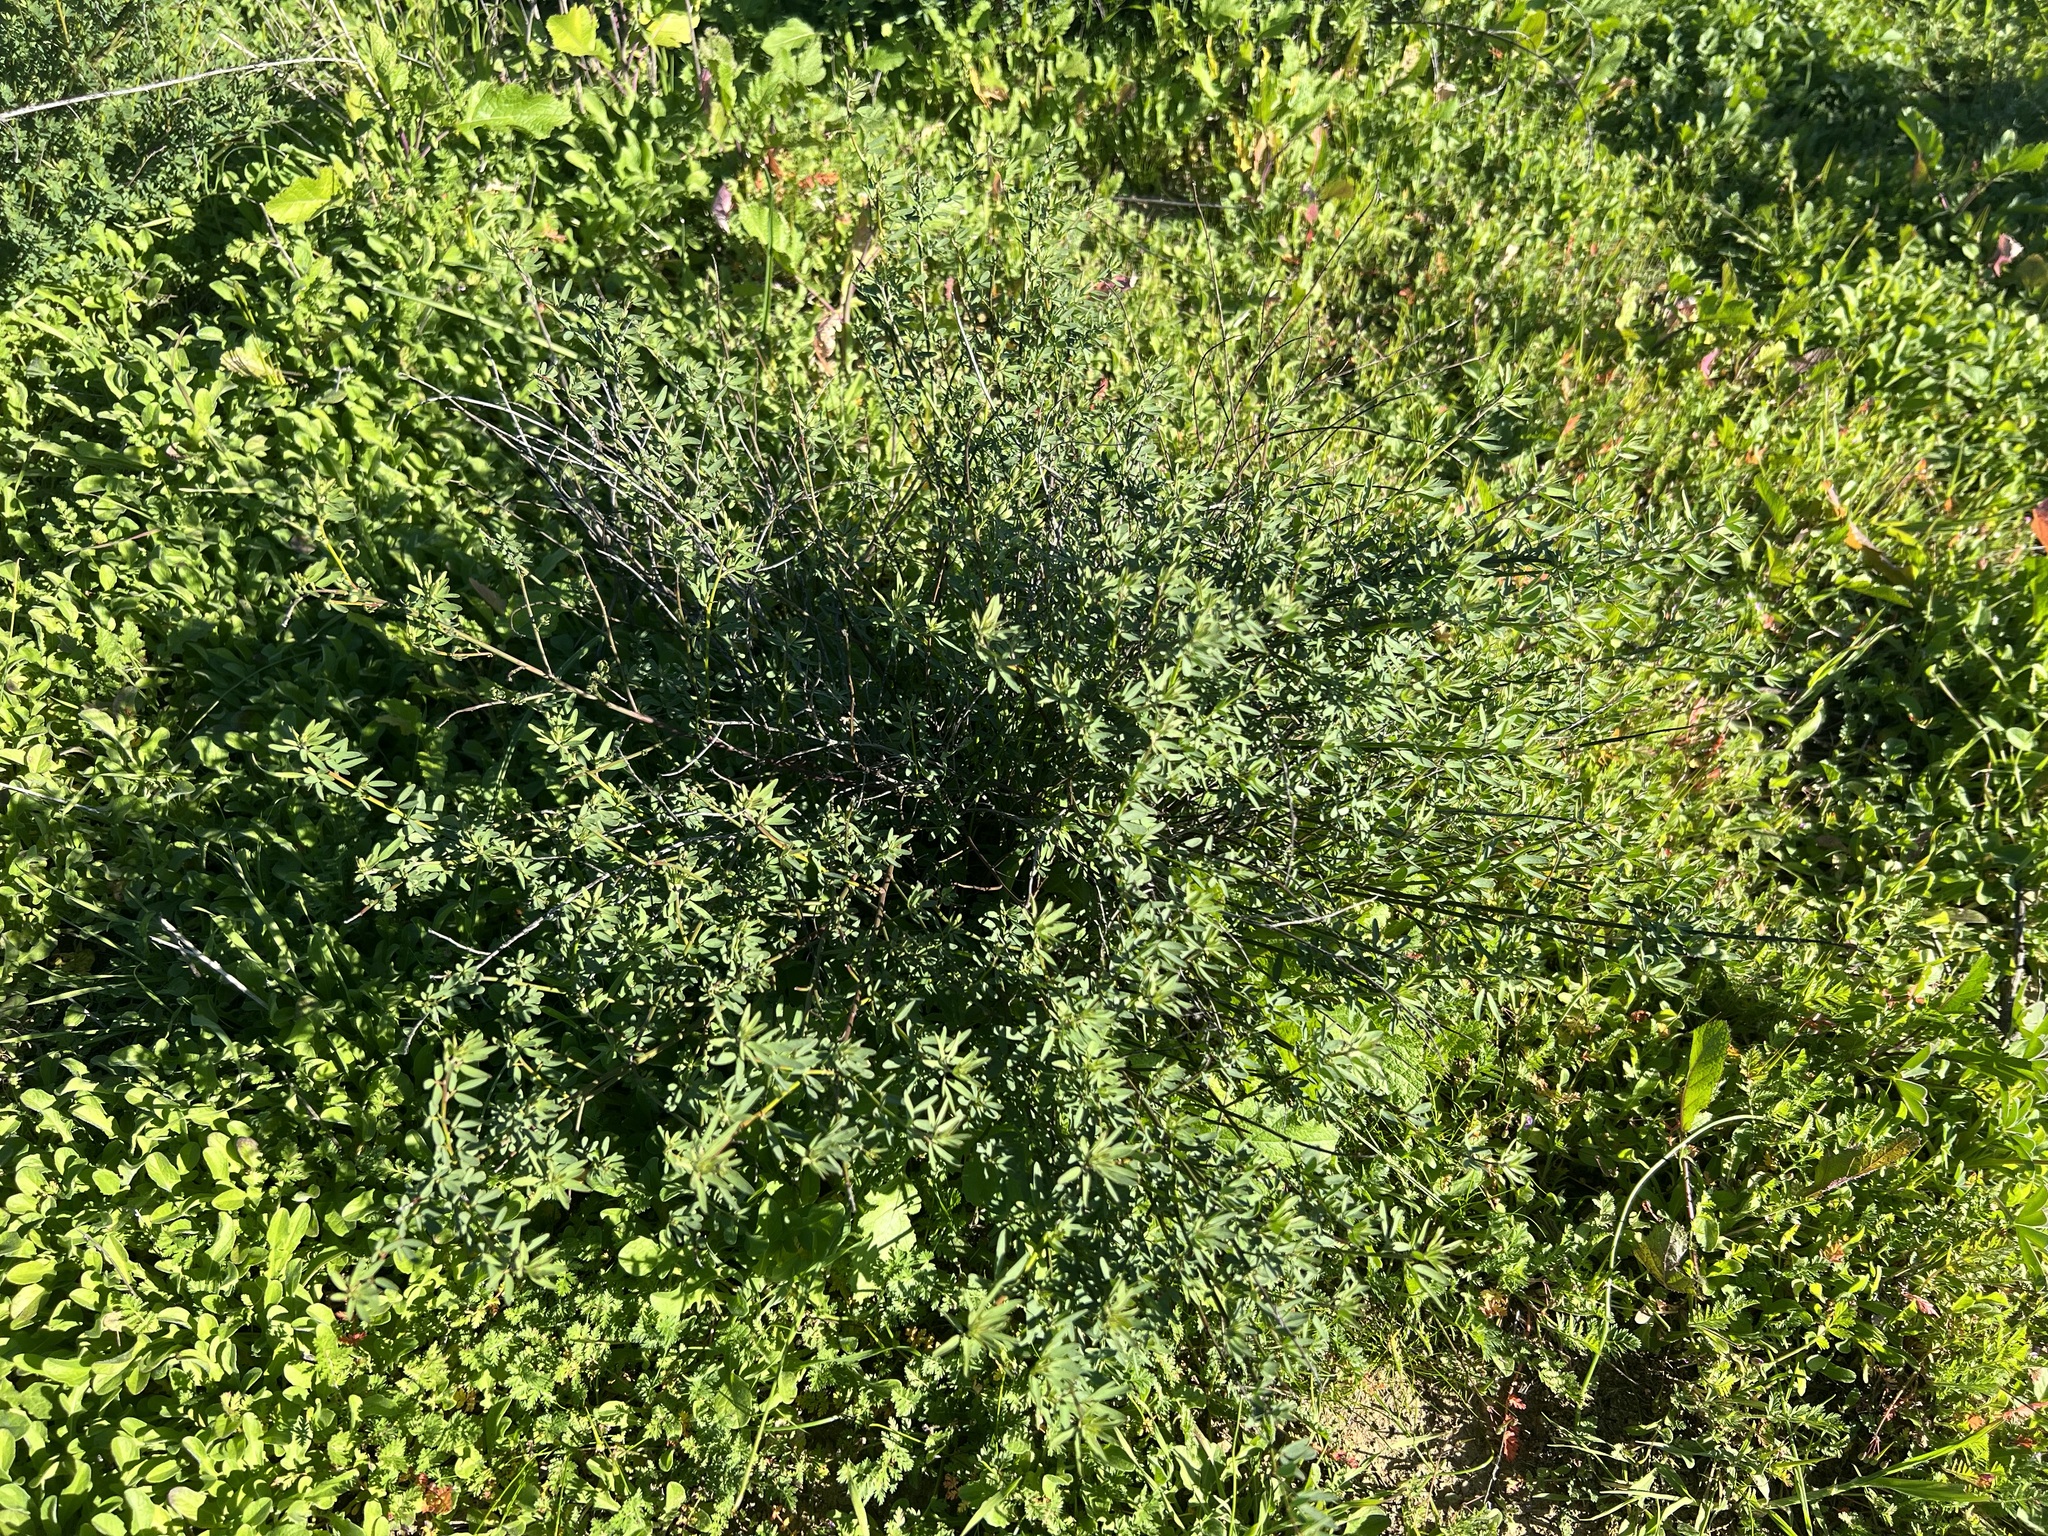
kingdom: Plantae
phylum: Tracheophyta
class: Magnoliopsida
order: Fabales
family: Fabaceae
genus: Acmispon
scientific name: Acmispon glaber
